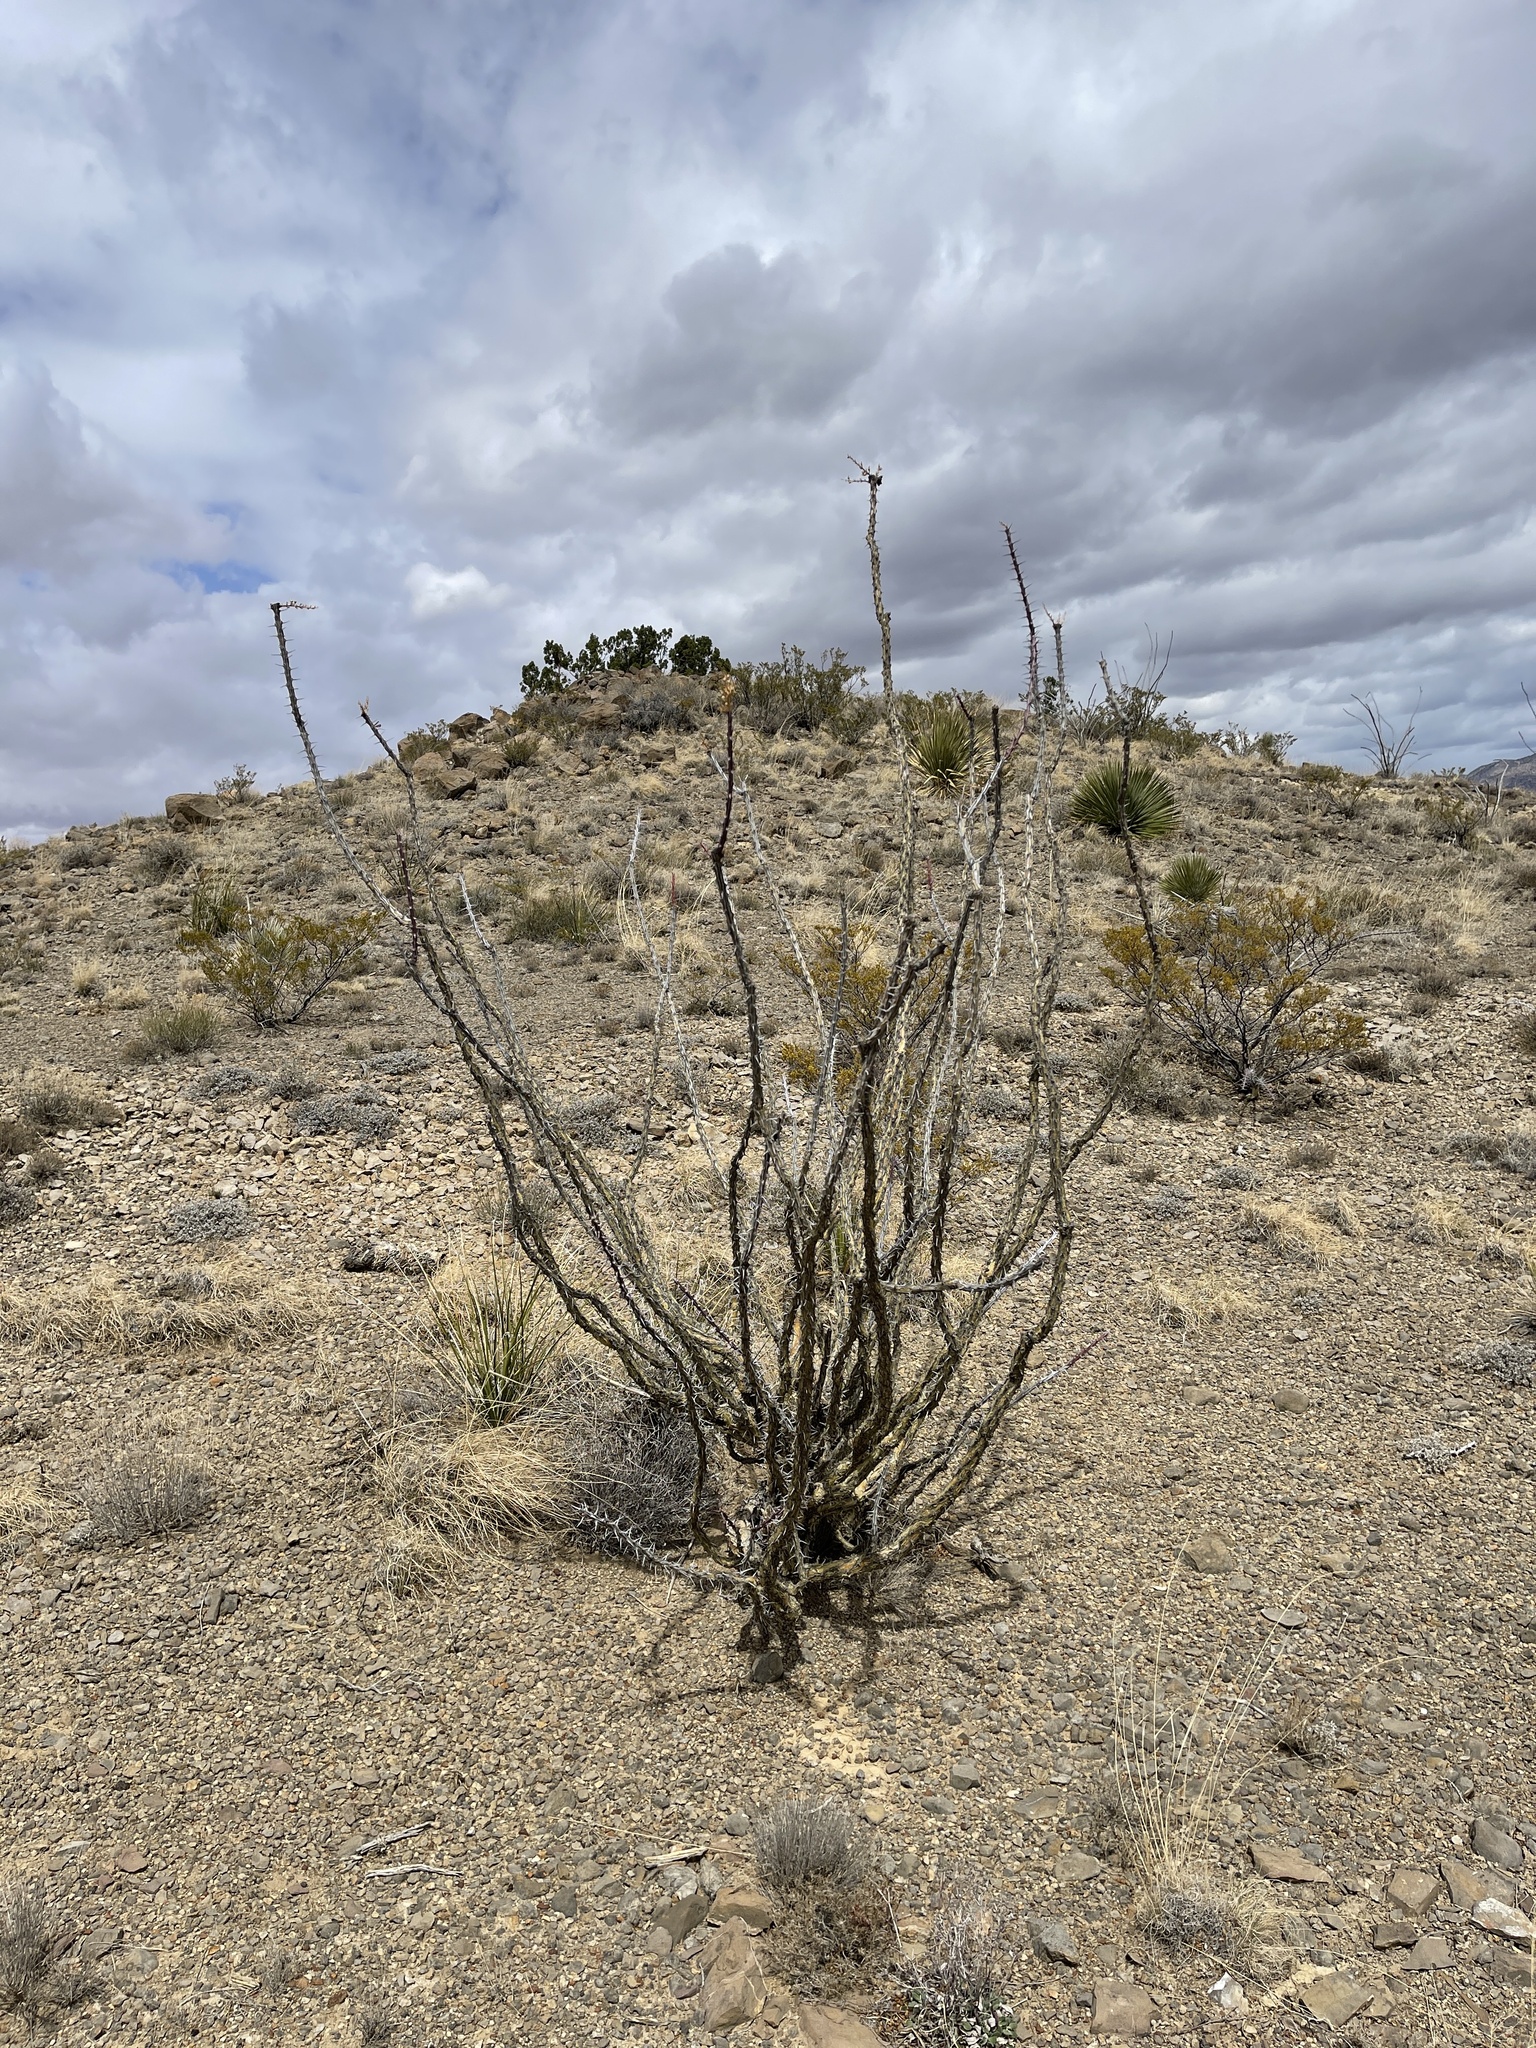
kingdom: Plantae
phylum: Tracheophyta
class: Magnoliopsida
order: Ericales
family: Fouquieriaceae
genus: Fouquieria
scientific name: Fouquieria splendens
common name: Vine-cactus
